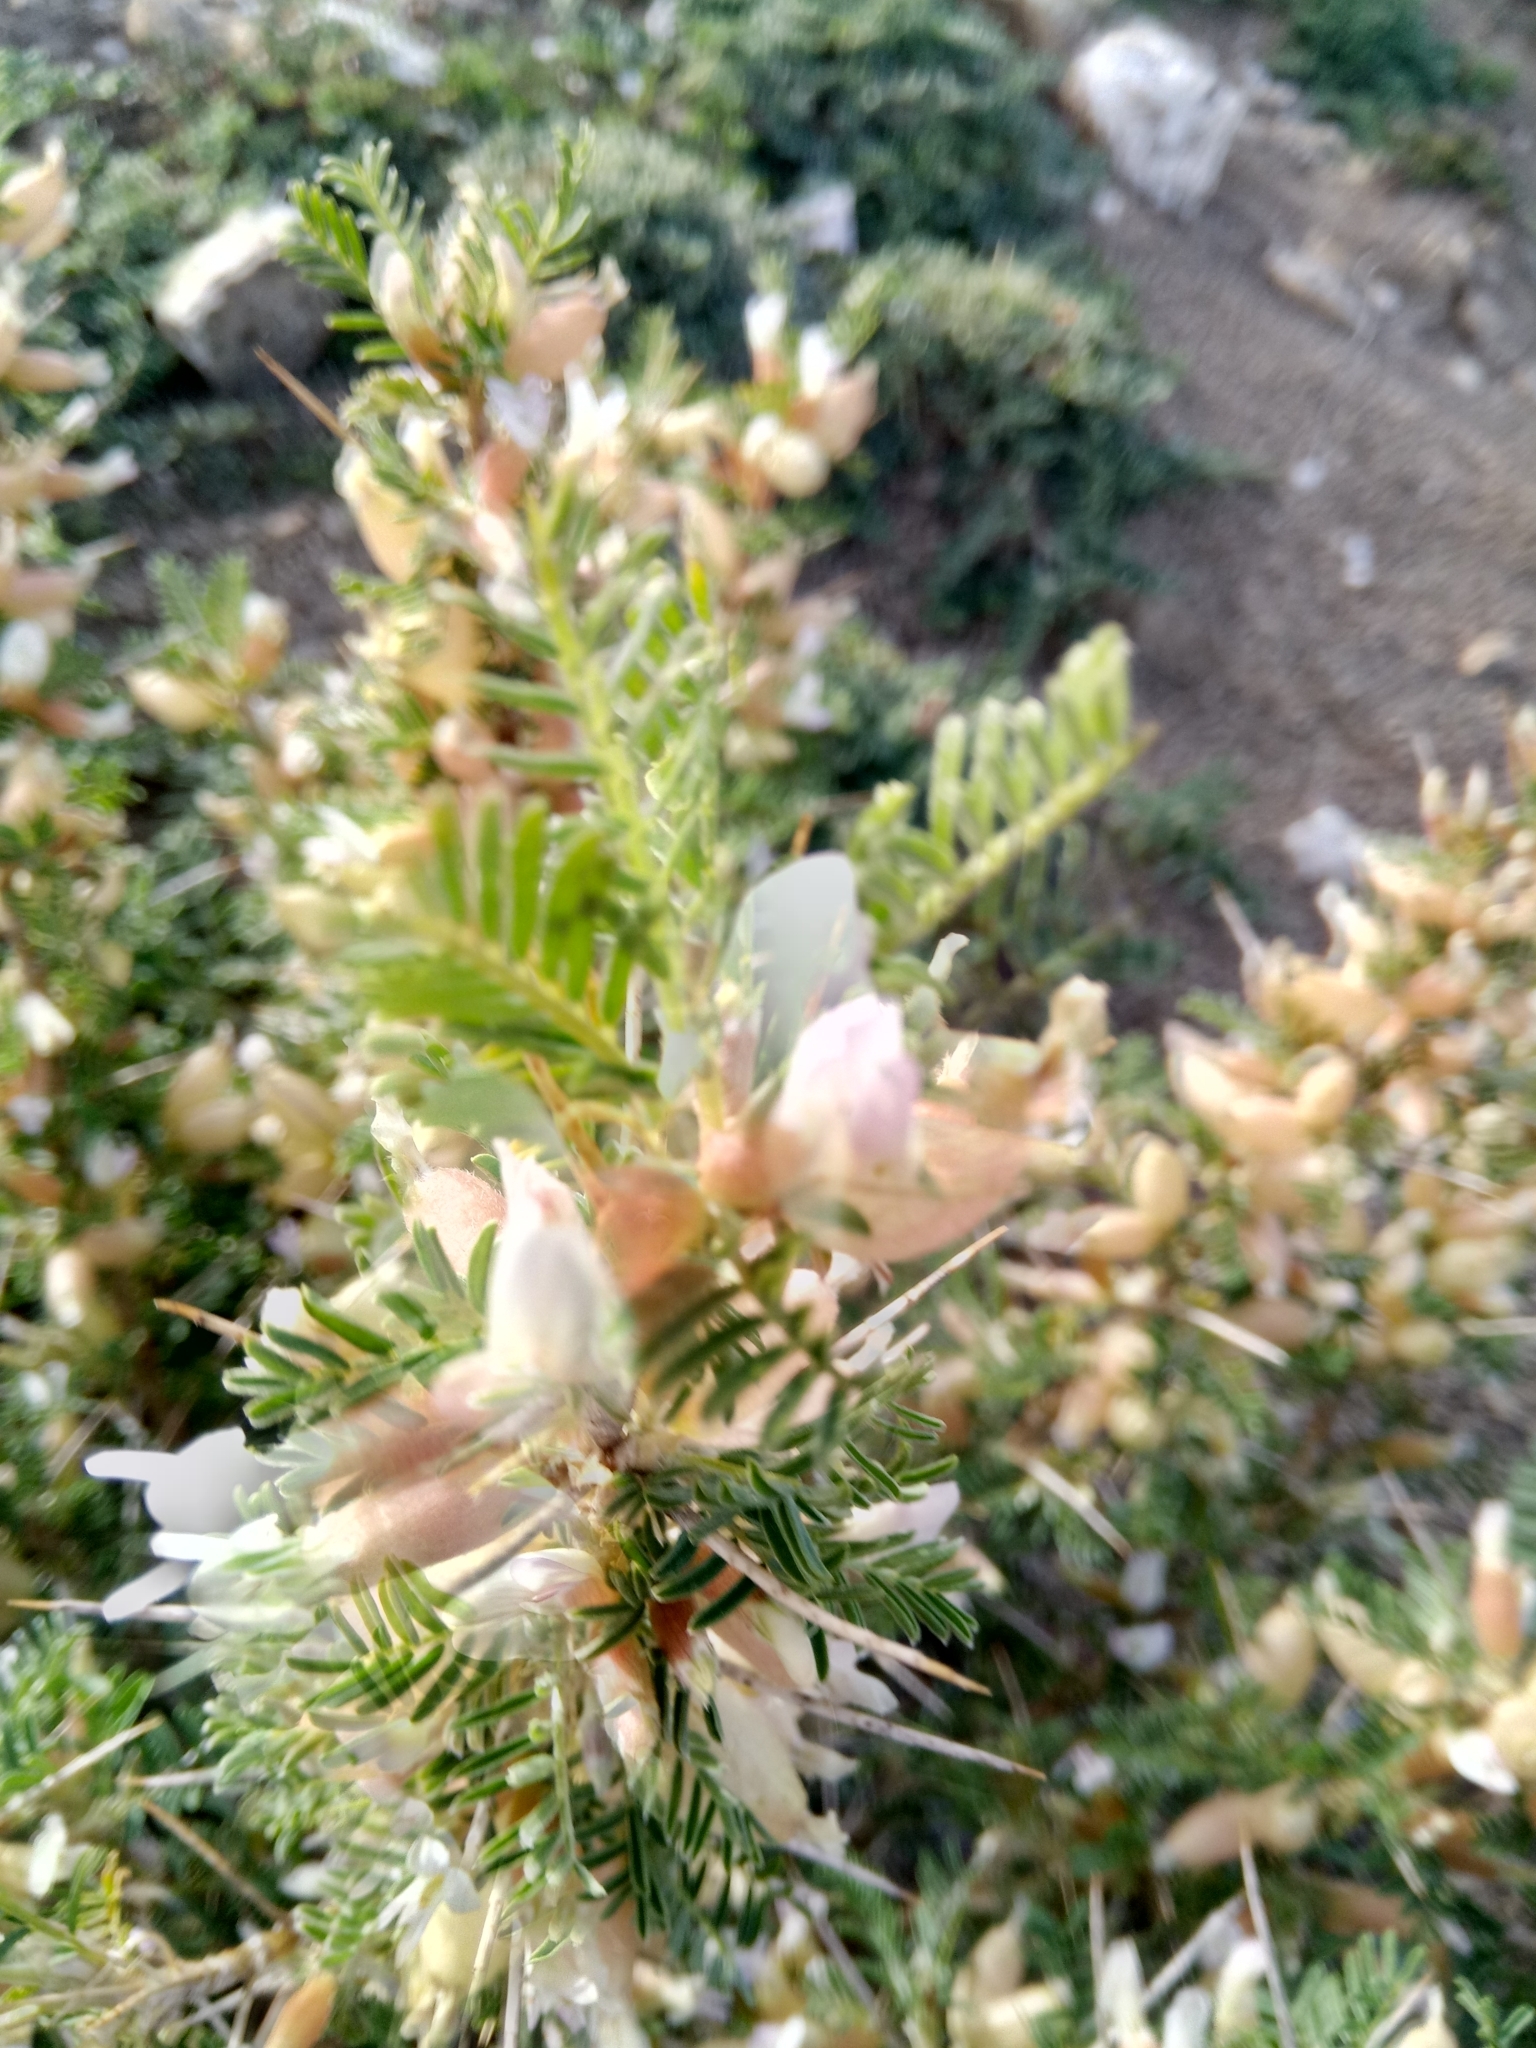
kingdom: Plantae
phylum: Tracheophyta
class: Magnoliopsida
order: Fabales
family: Fabaceae
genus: Astragalus
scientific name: Astragalus armatus
